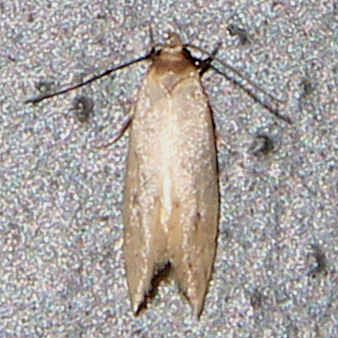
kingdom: Animalia
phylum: Arthropoda
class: Insecta
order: Lepidoptera
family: Cosmopterigidae
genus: Limnaecia
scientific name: Limnaecia phragmitella
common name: Bulrush cosmet
